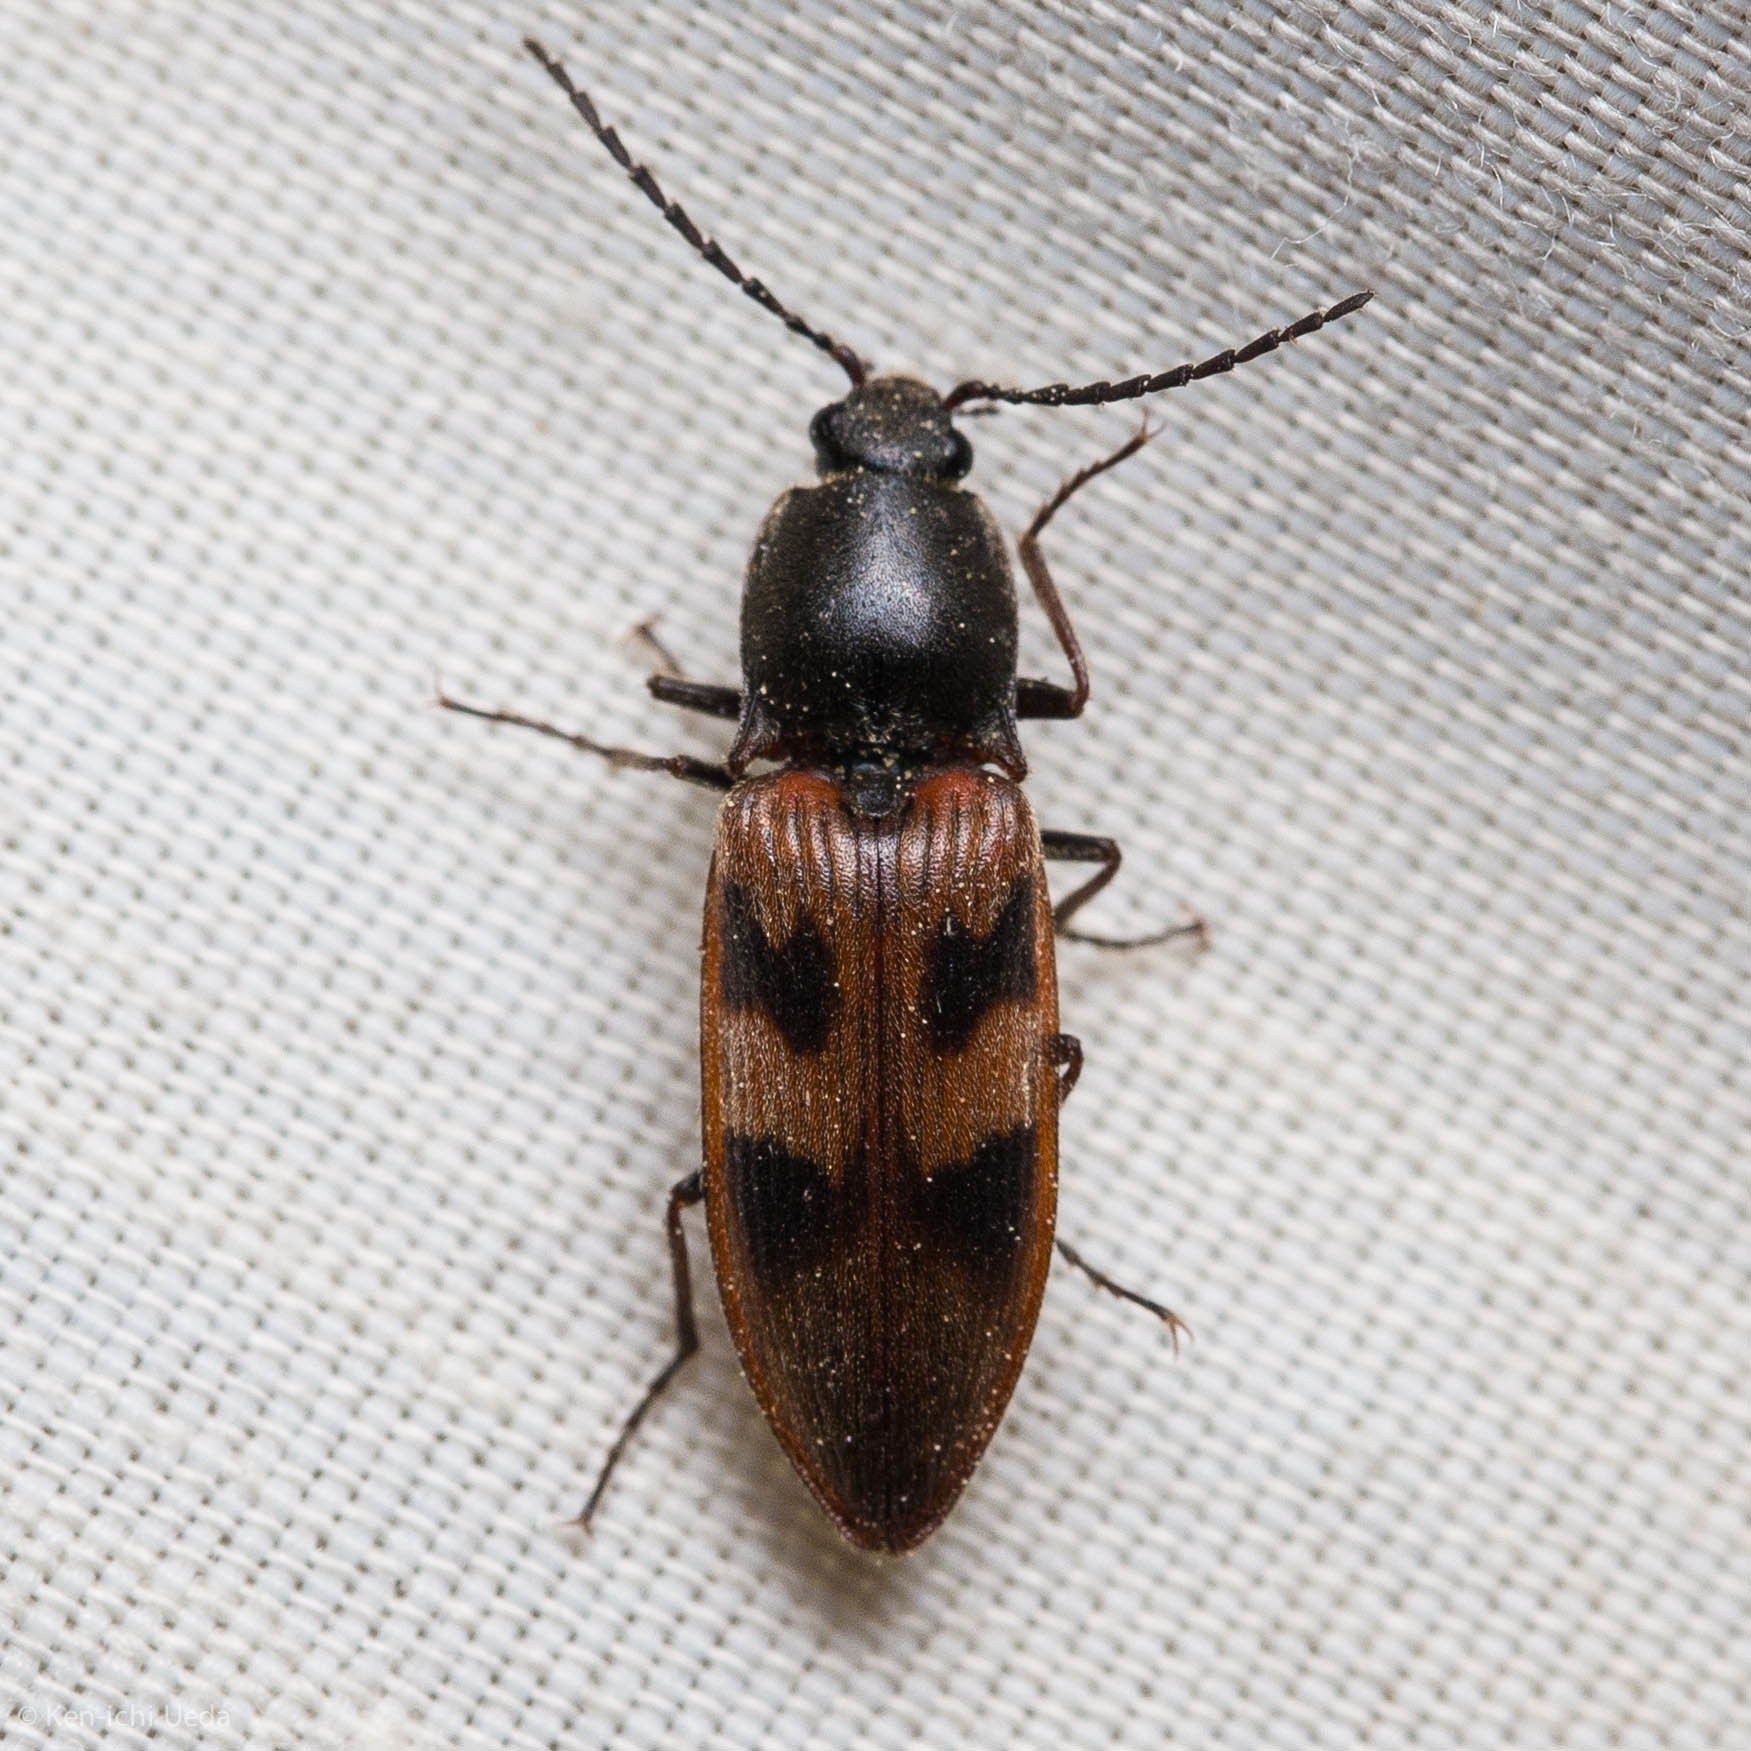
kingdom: Animalia
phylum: Arthropoda
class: Insecta
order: Coleoptera
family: Elateridae
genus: Stropenron
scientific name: Stropenron nigricollis
